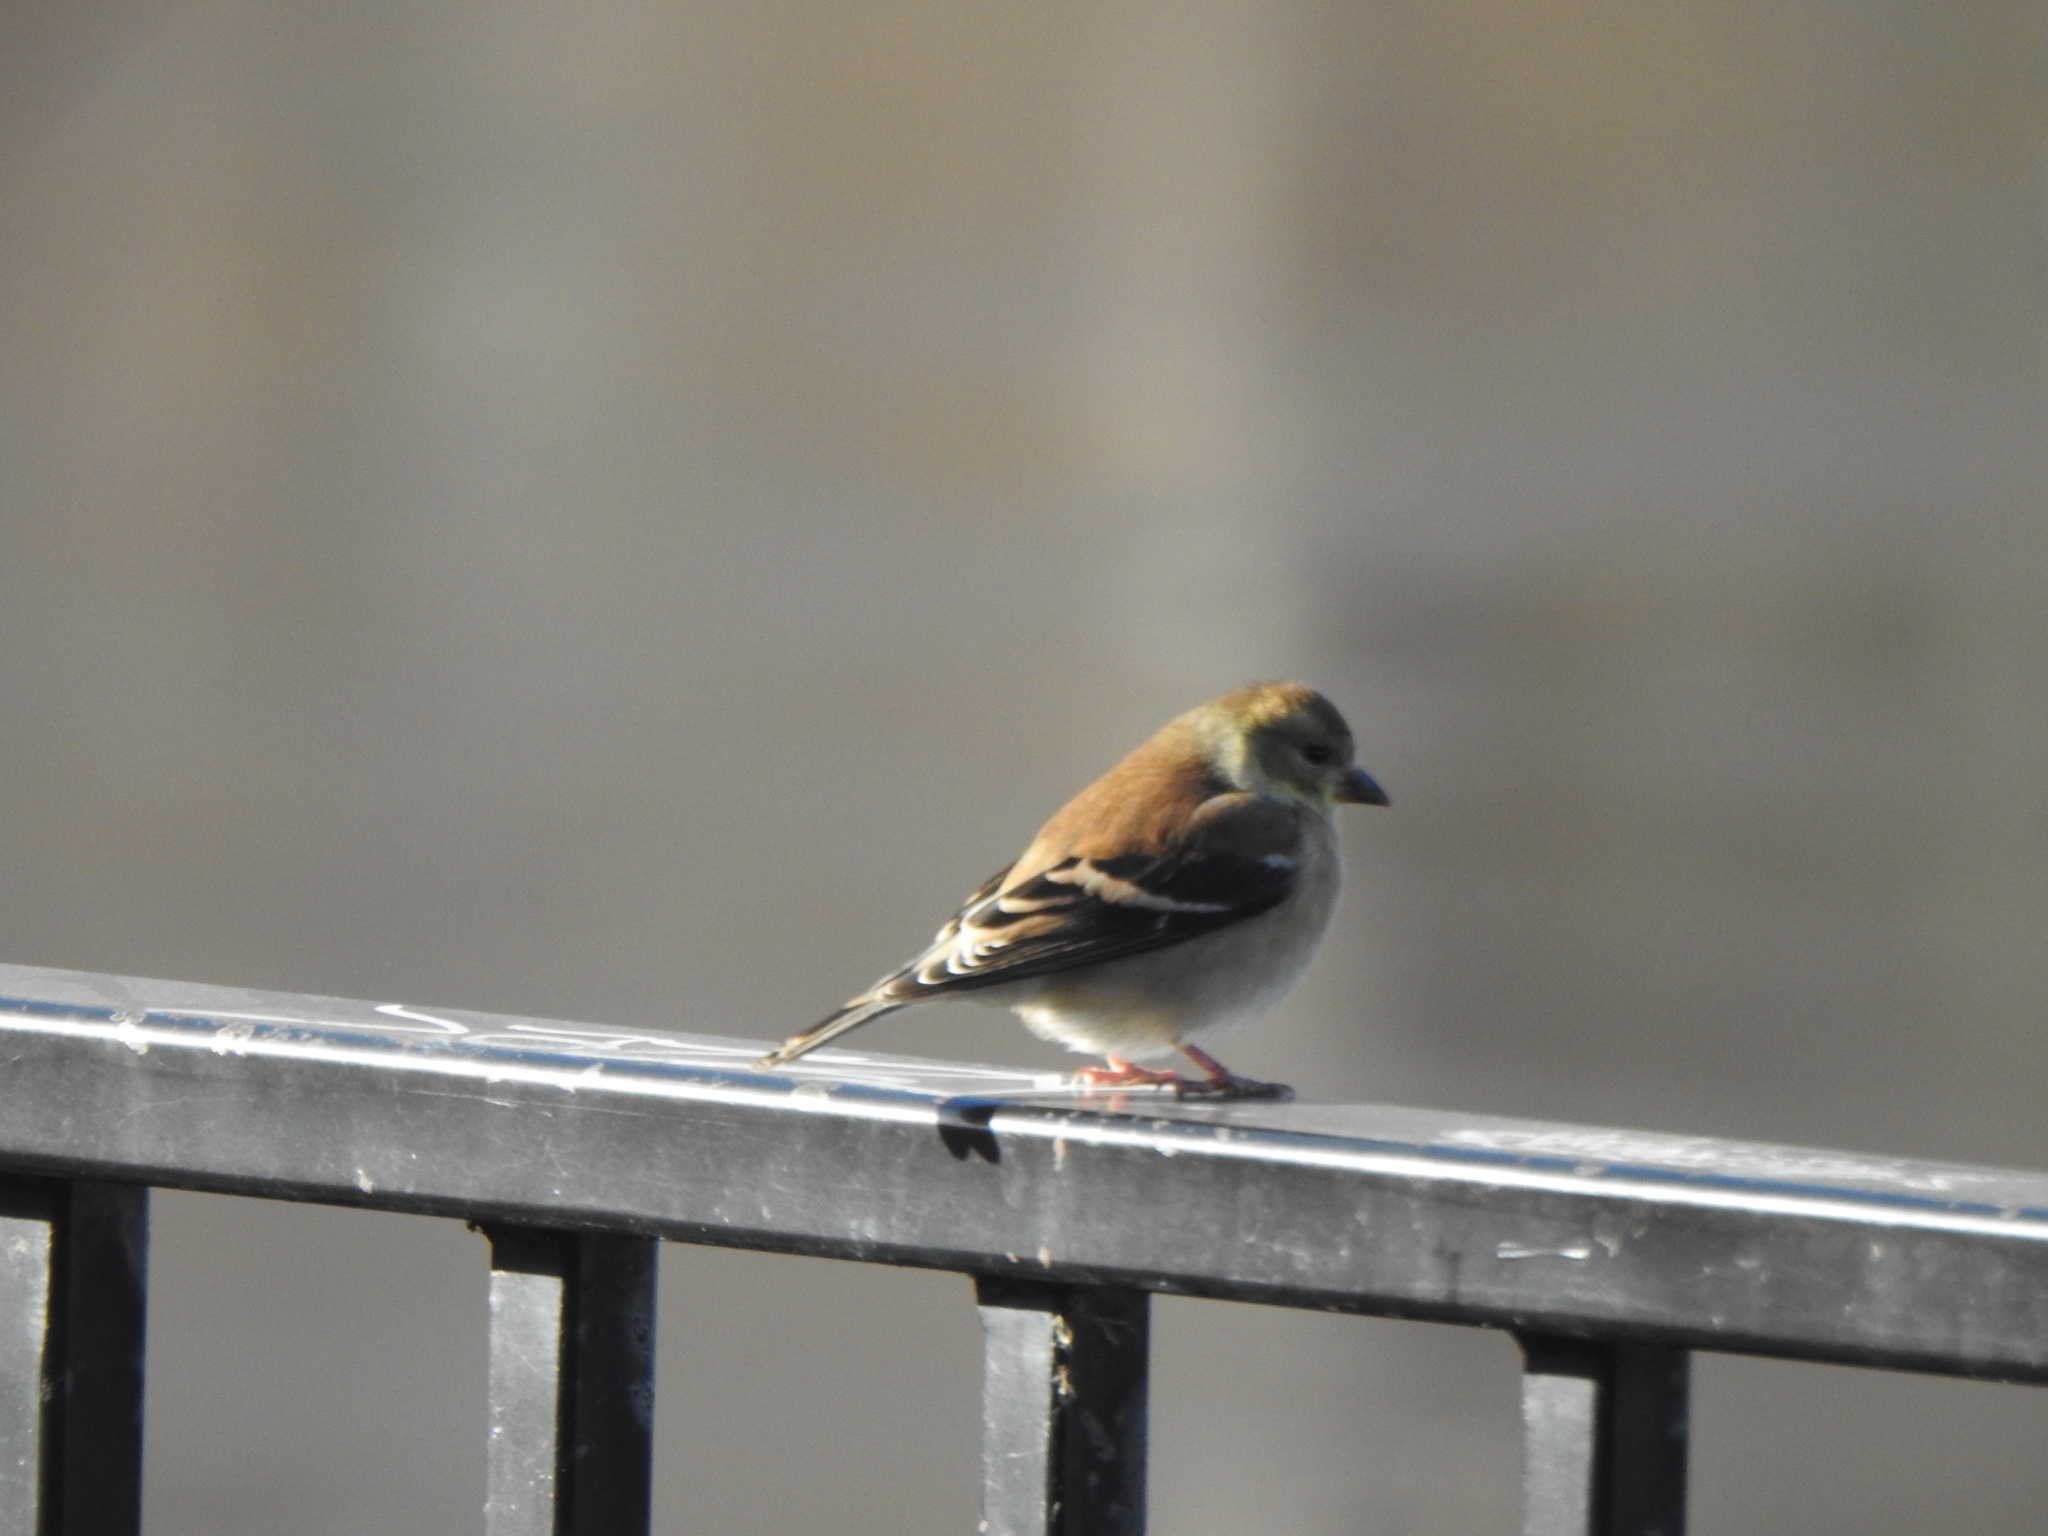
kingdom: Animalia
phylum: Chordata
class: Aves
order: Passeriformes
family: Fringillidae
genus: Spinus
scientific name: Spinus tristis
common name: American goldfinch
